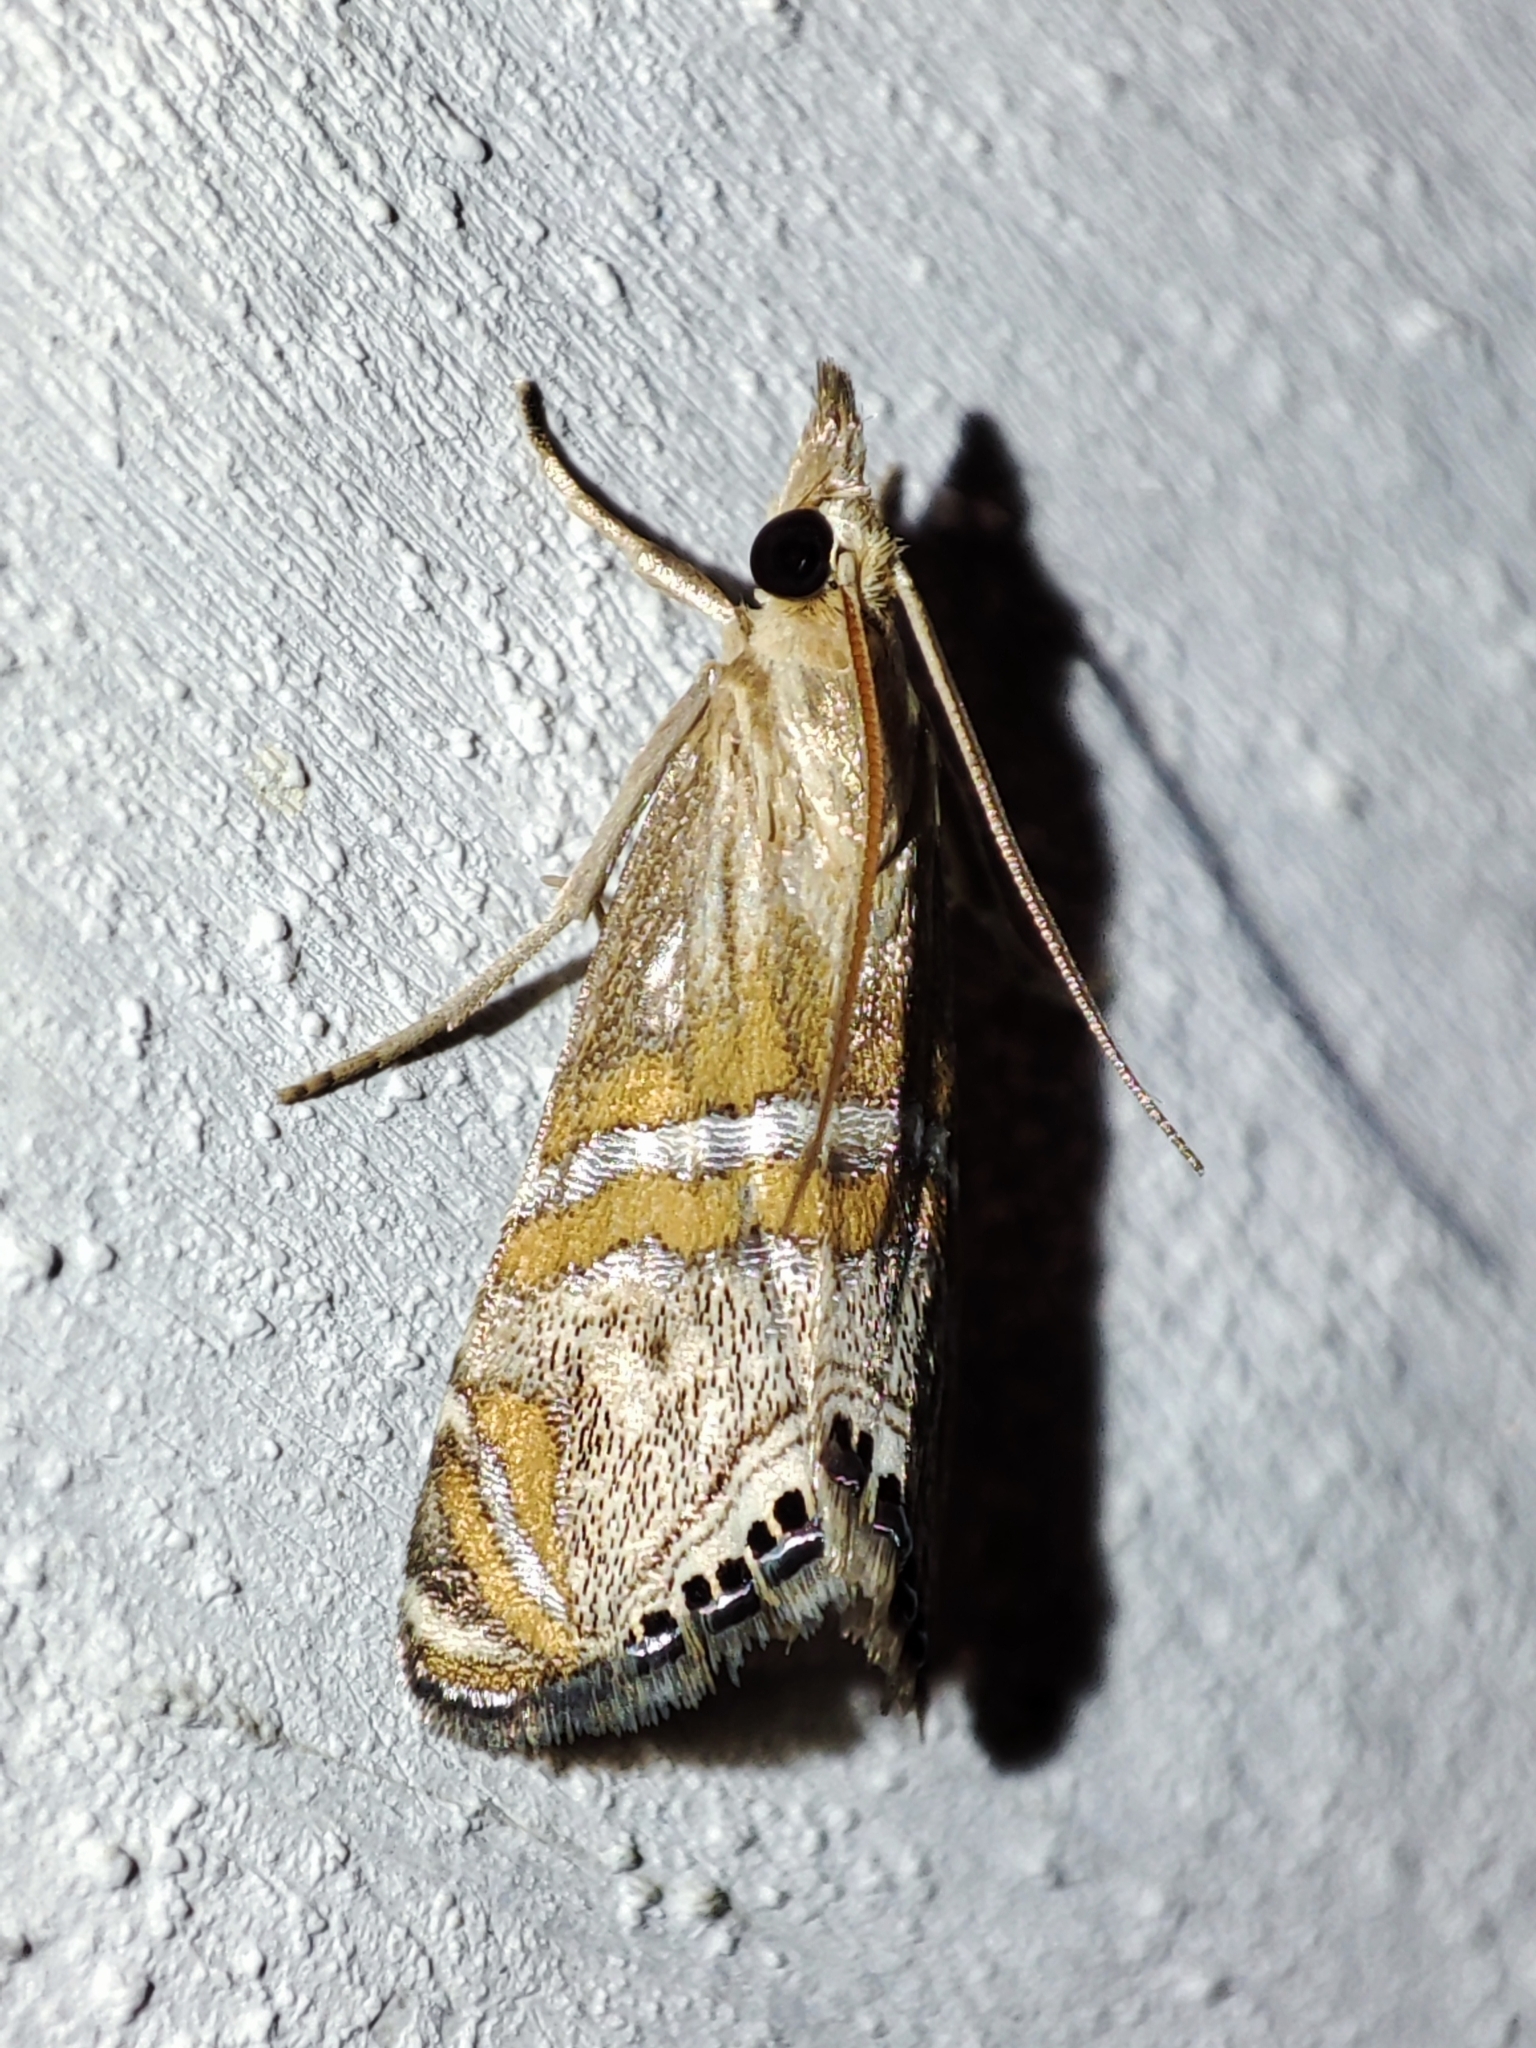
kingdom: Animalia
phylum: Arthropoda
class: Insecta
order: Lepidoptera
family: Crambidae
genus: Euchromius
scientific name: Euchromius bella
